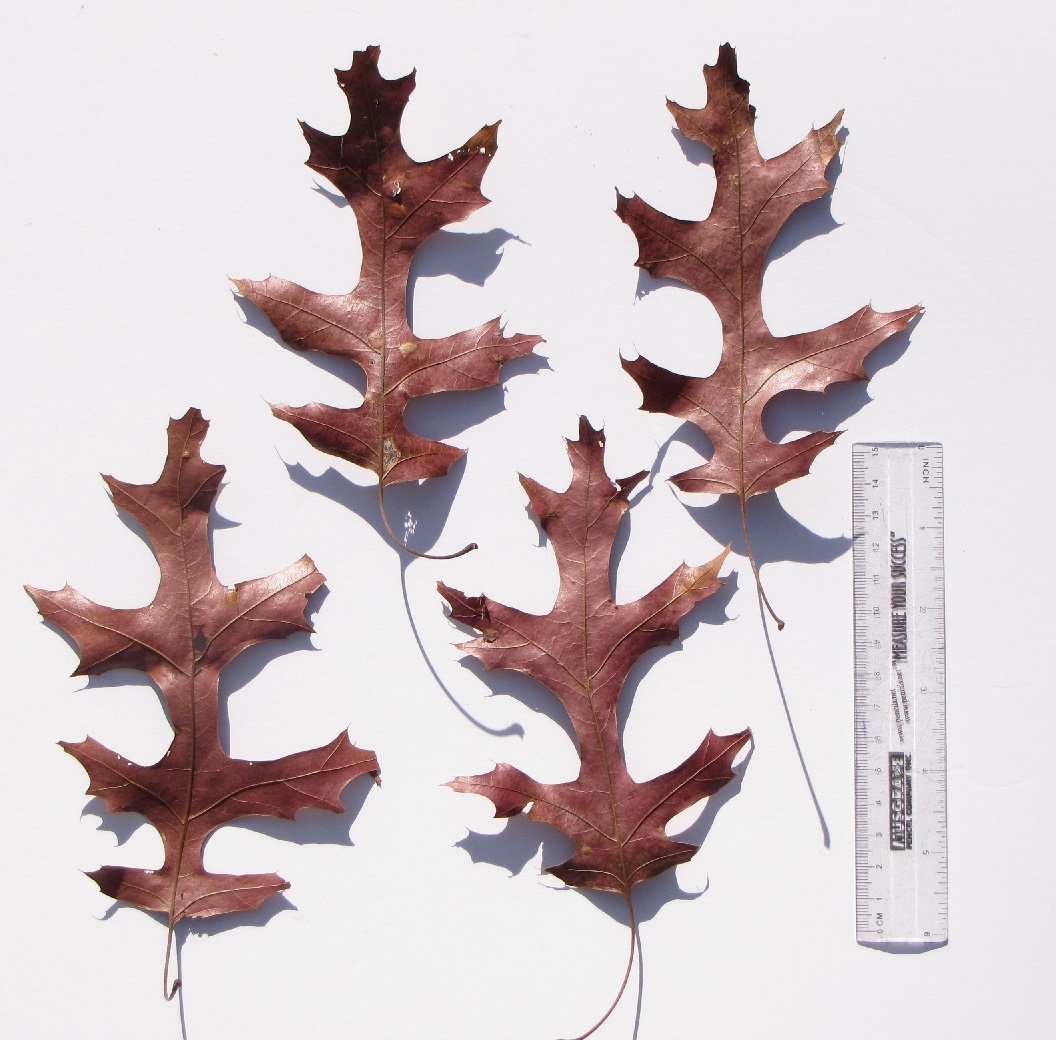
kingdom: Plantae
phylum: Tracheophyta
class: Magnoliopsida
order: Fagales
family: Fagaceae
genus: Quercus
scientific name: Quercus coccinea
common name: Scarlet oak
